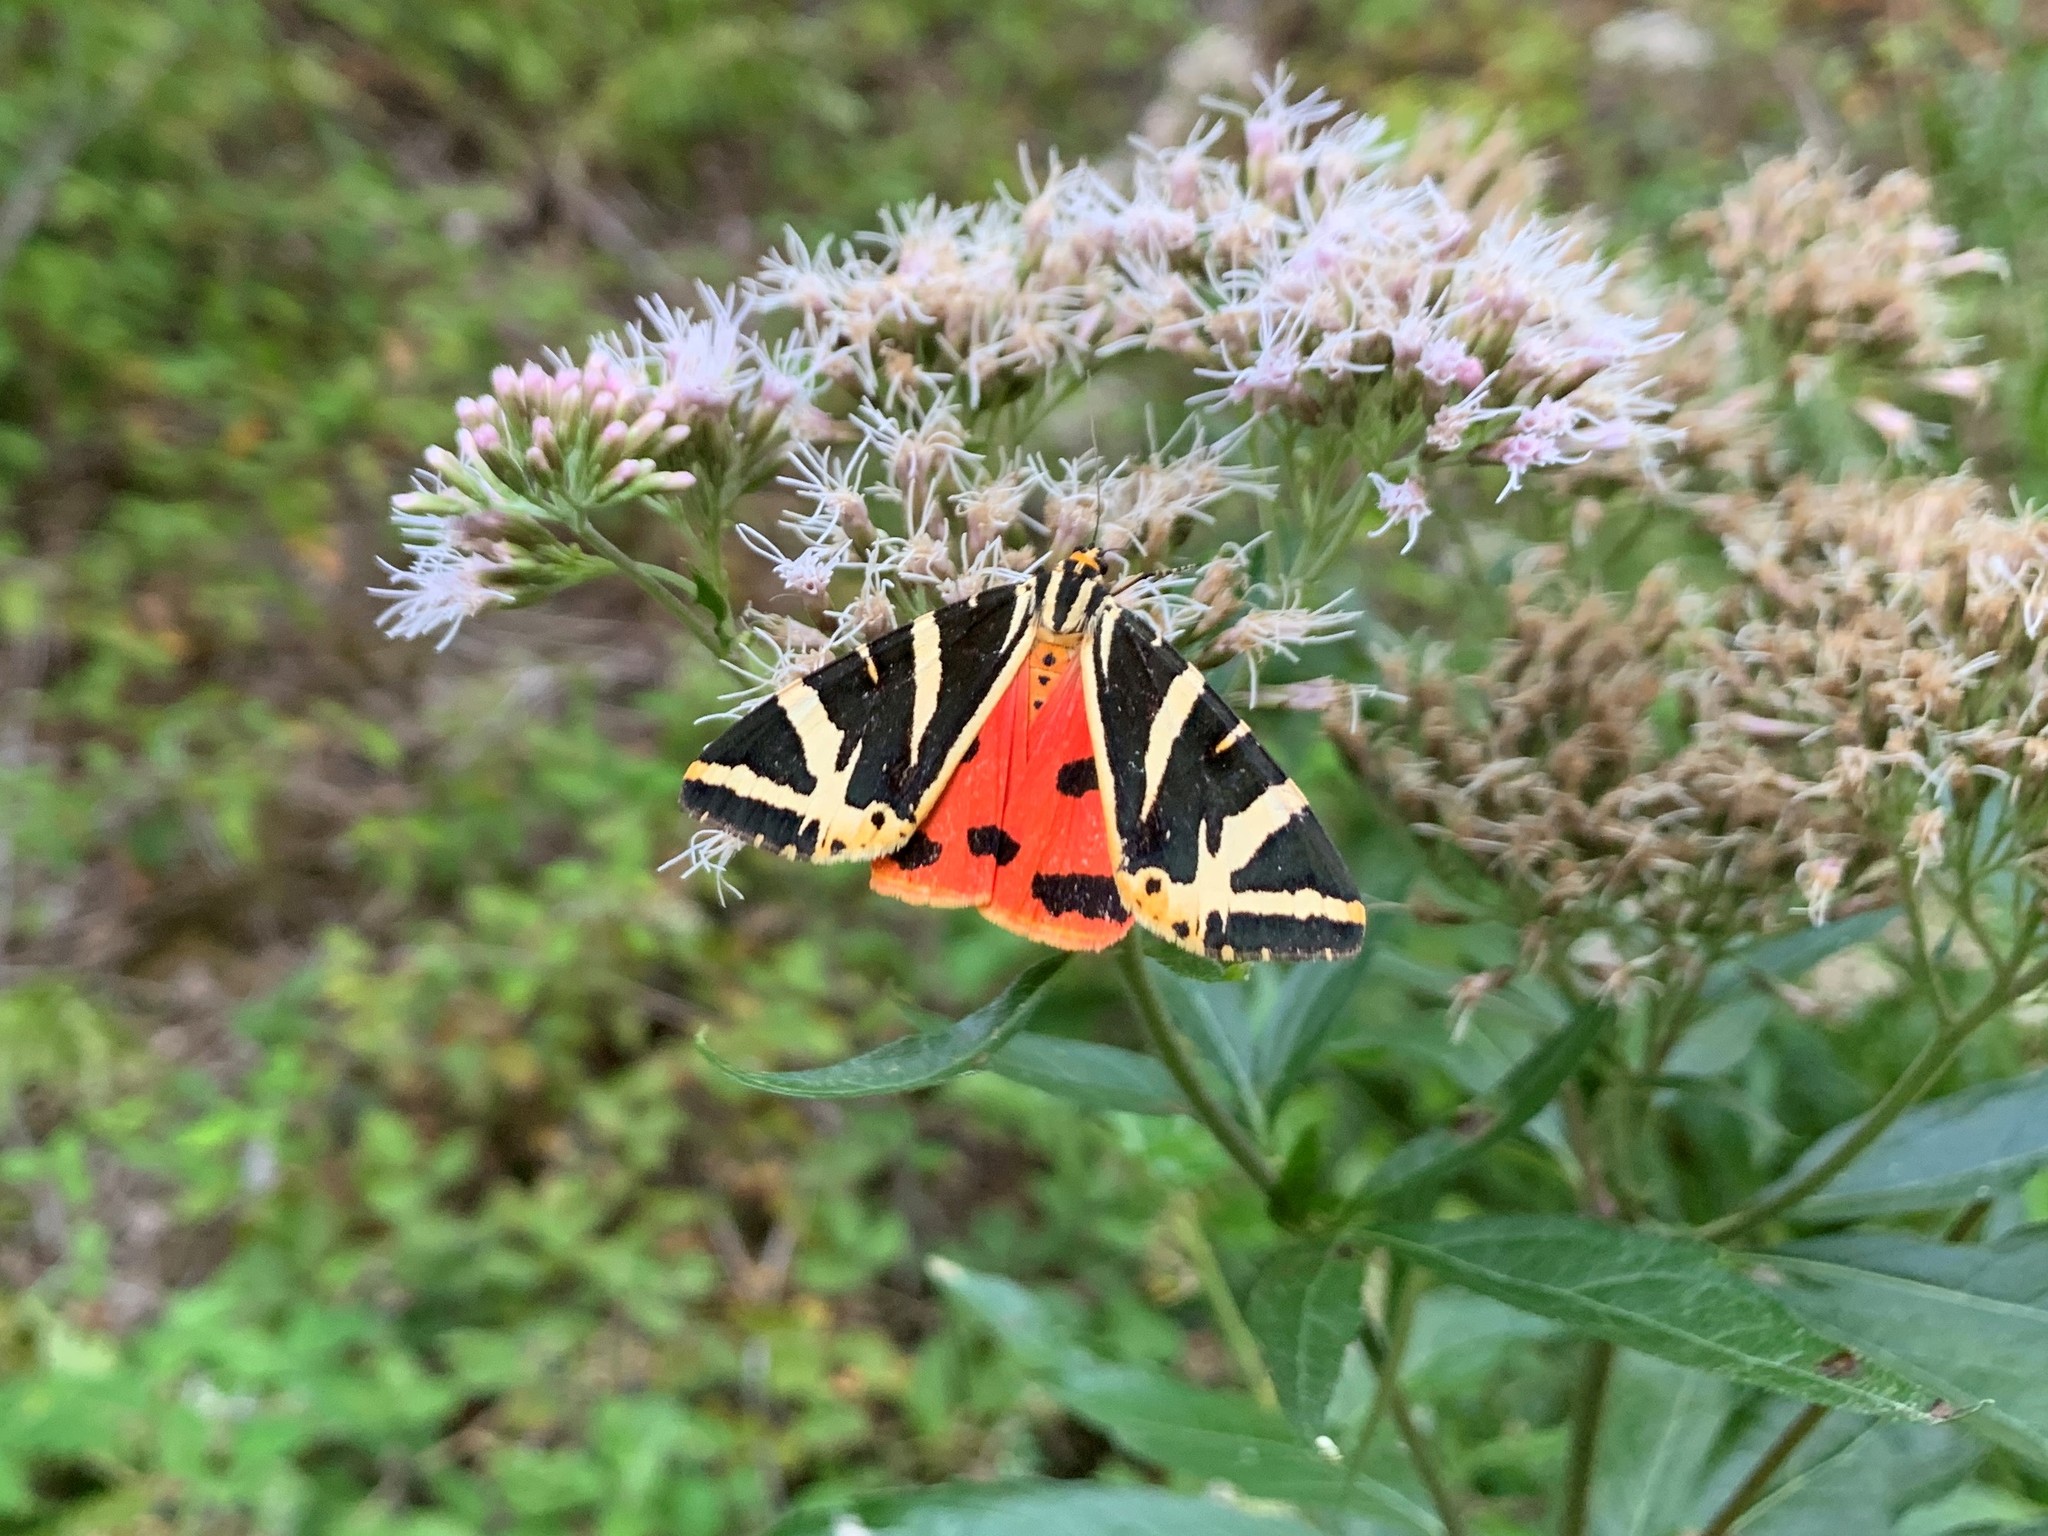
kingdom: Animalia
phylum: Arthropoda
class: Insecta
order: Lepidoptera
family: Erebidae
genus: Euplagia
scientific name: Euplagia quadripunctaria
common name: Jersey tiger
